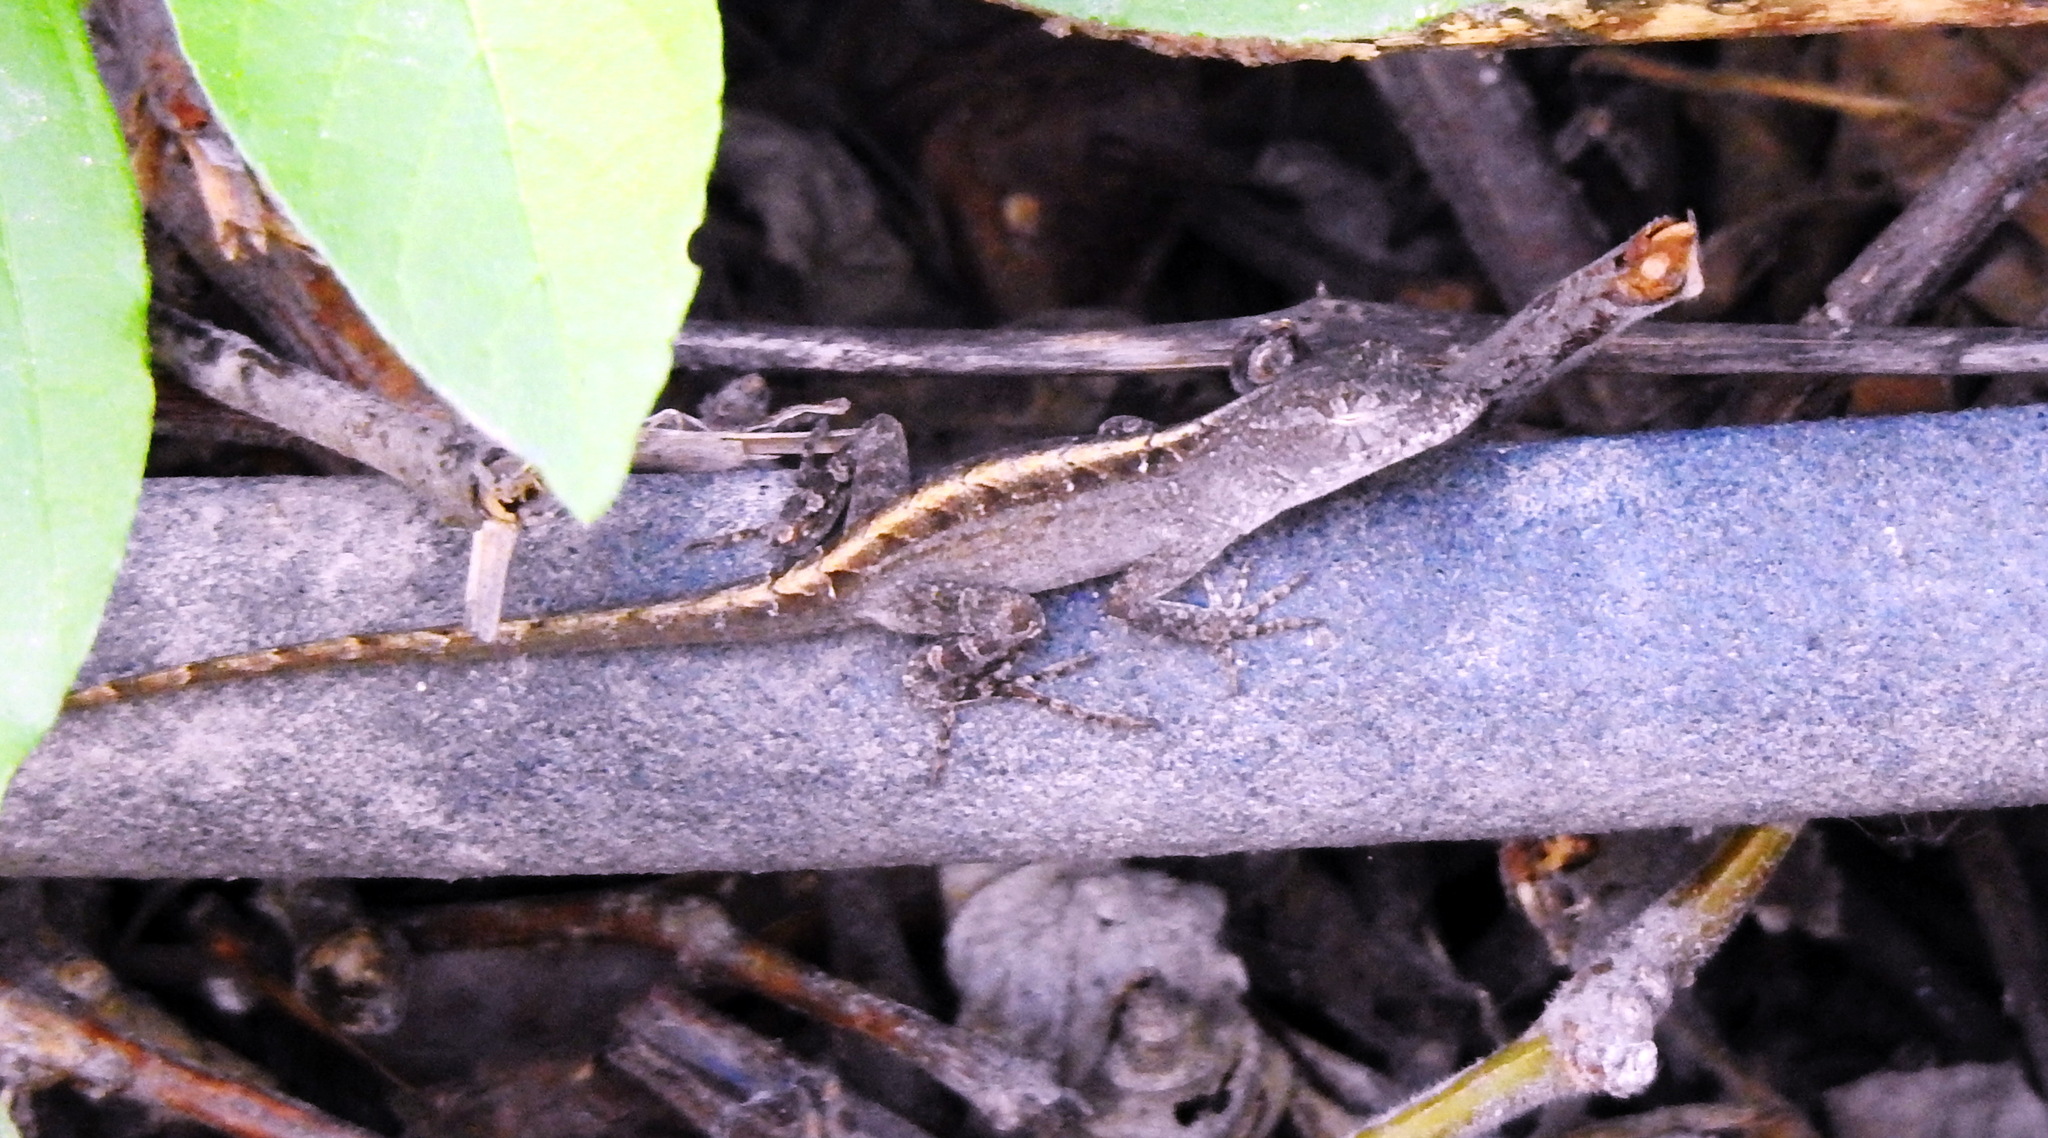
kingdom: Animalia
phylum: Chordata
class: Squamata
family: Dactyloidae
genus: Anolis
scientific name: Anolis sagrei
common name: Brown anole
